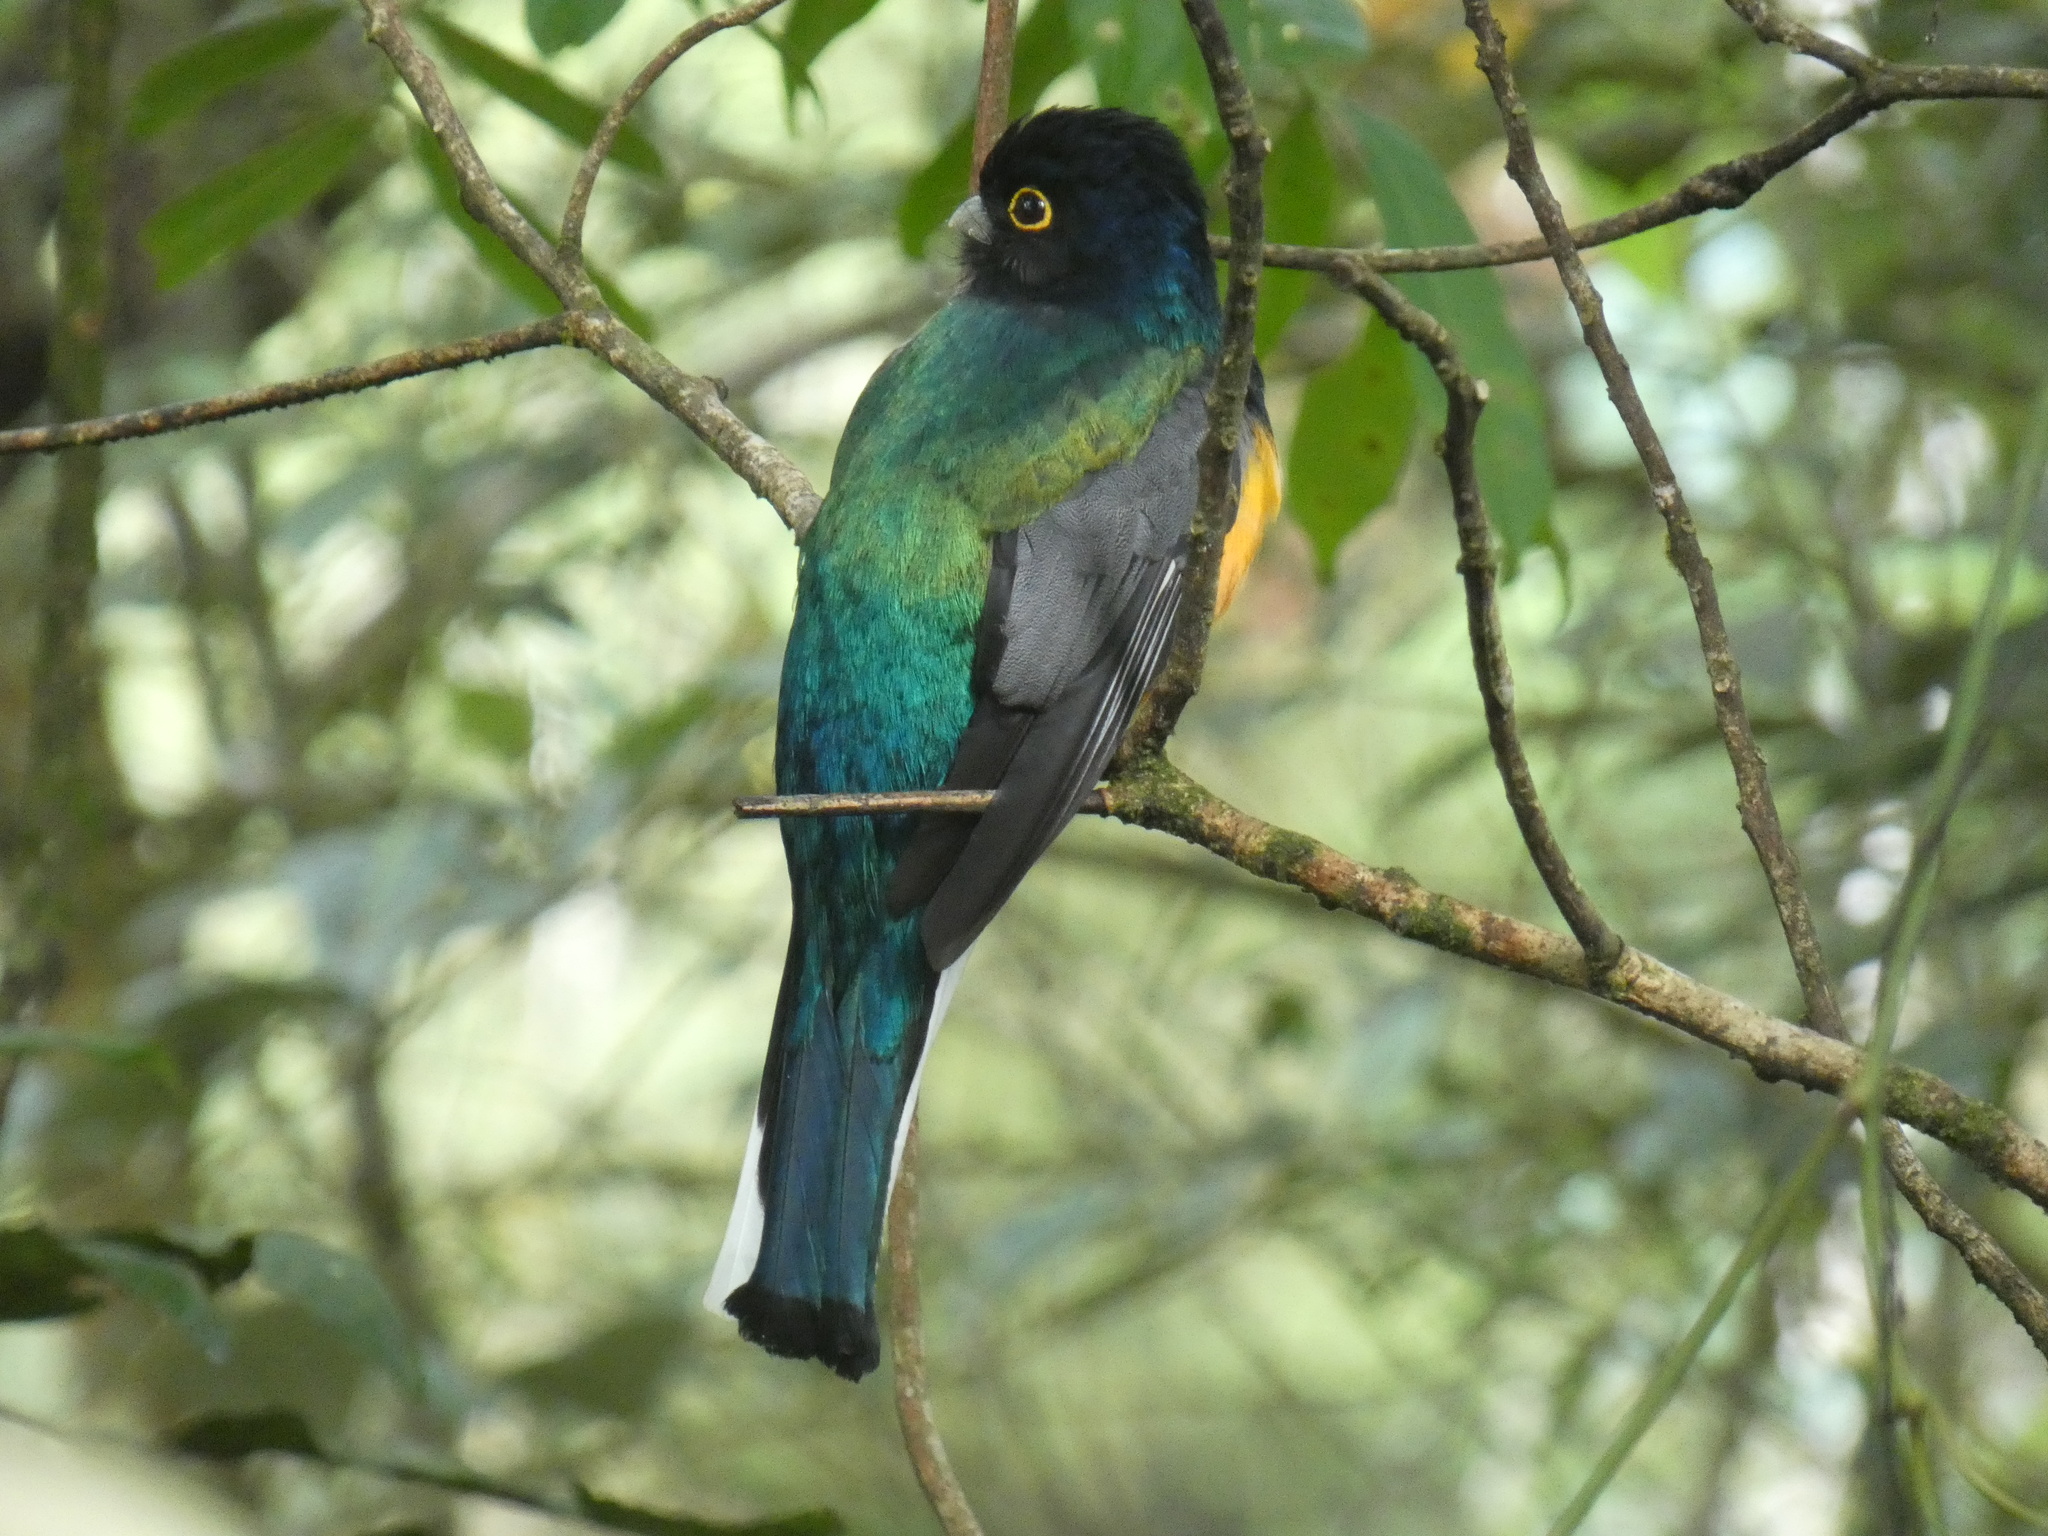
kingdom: Animalia
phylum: Chordata
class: Aves
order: Trogoniformes
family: Trogonidae
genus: Trogon
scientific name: Trogon surrucura
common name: Surucua trogon
